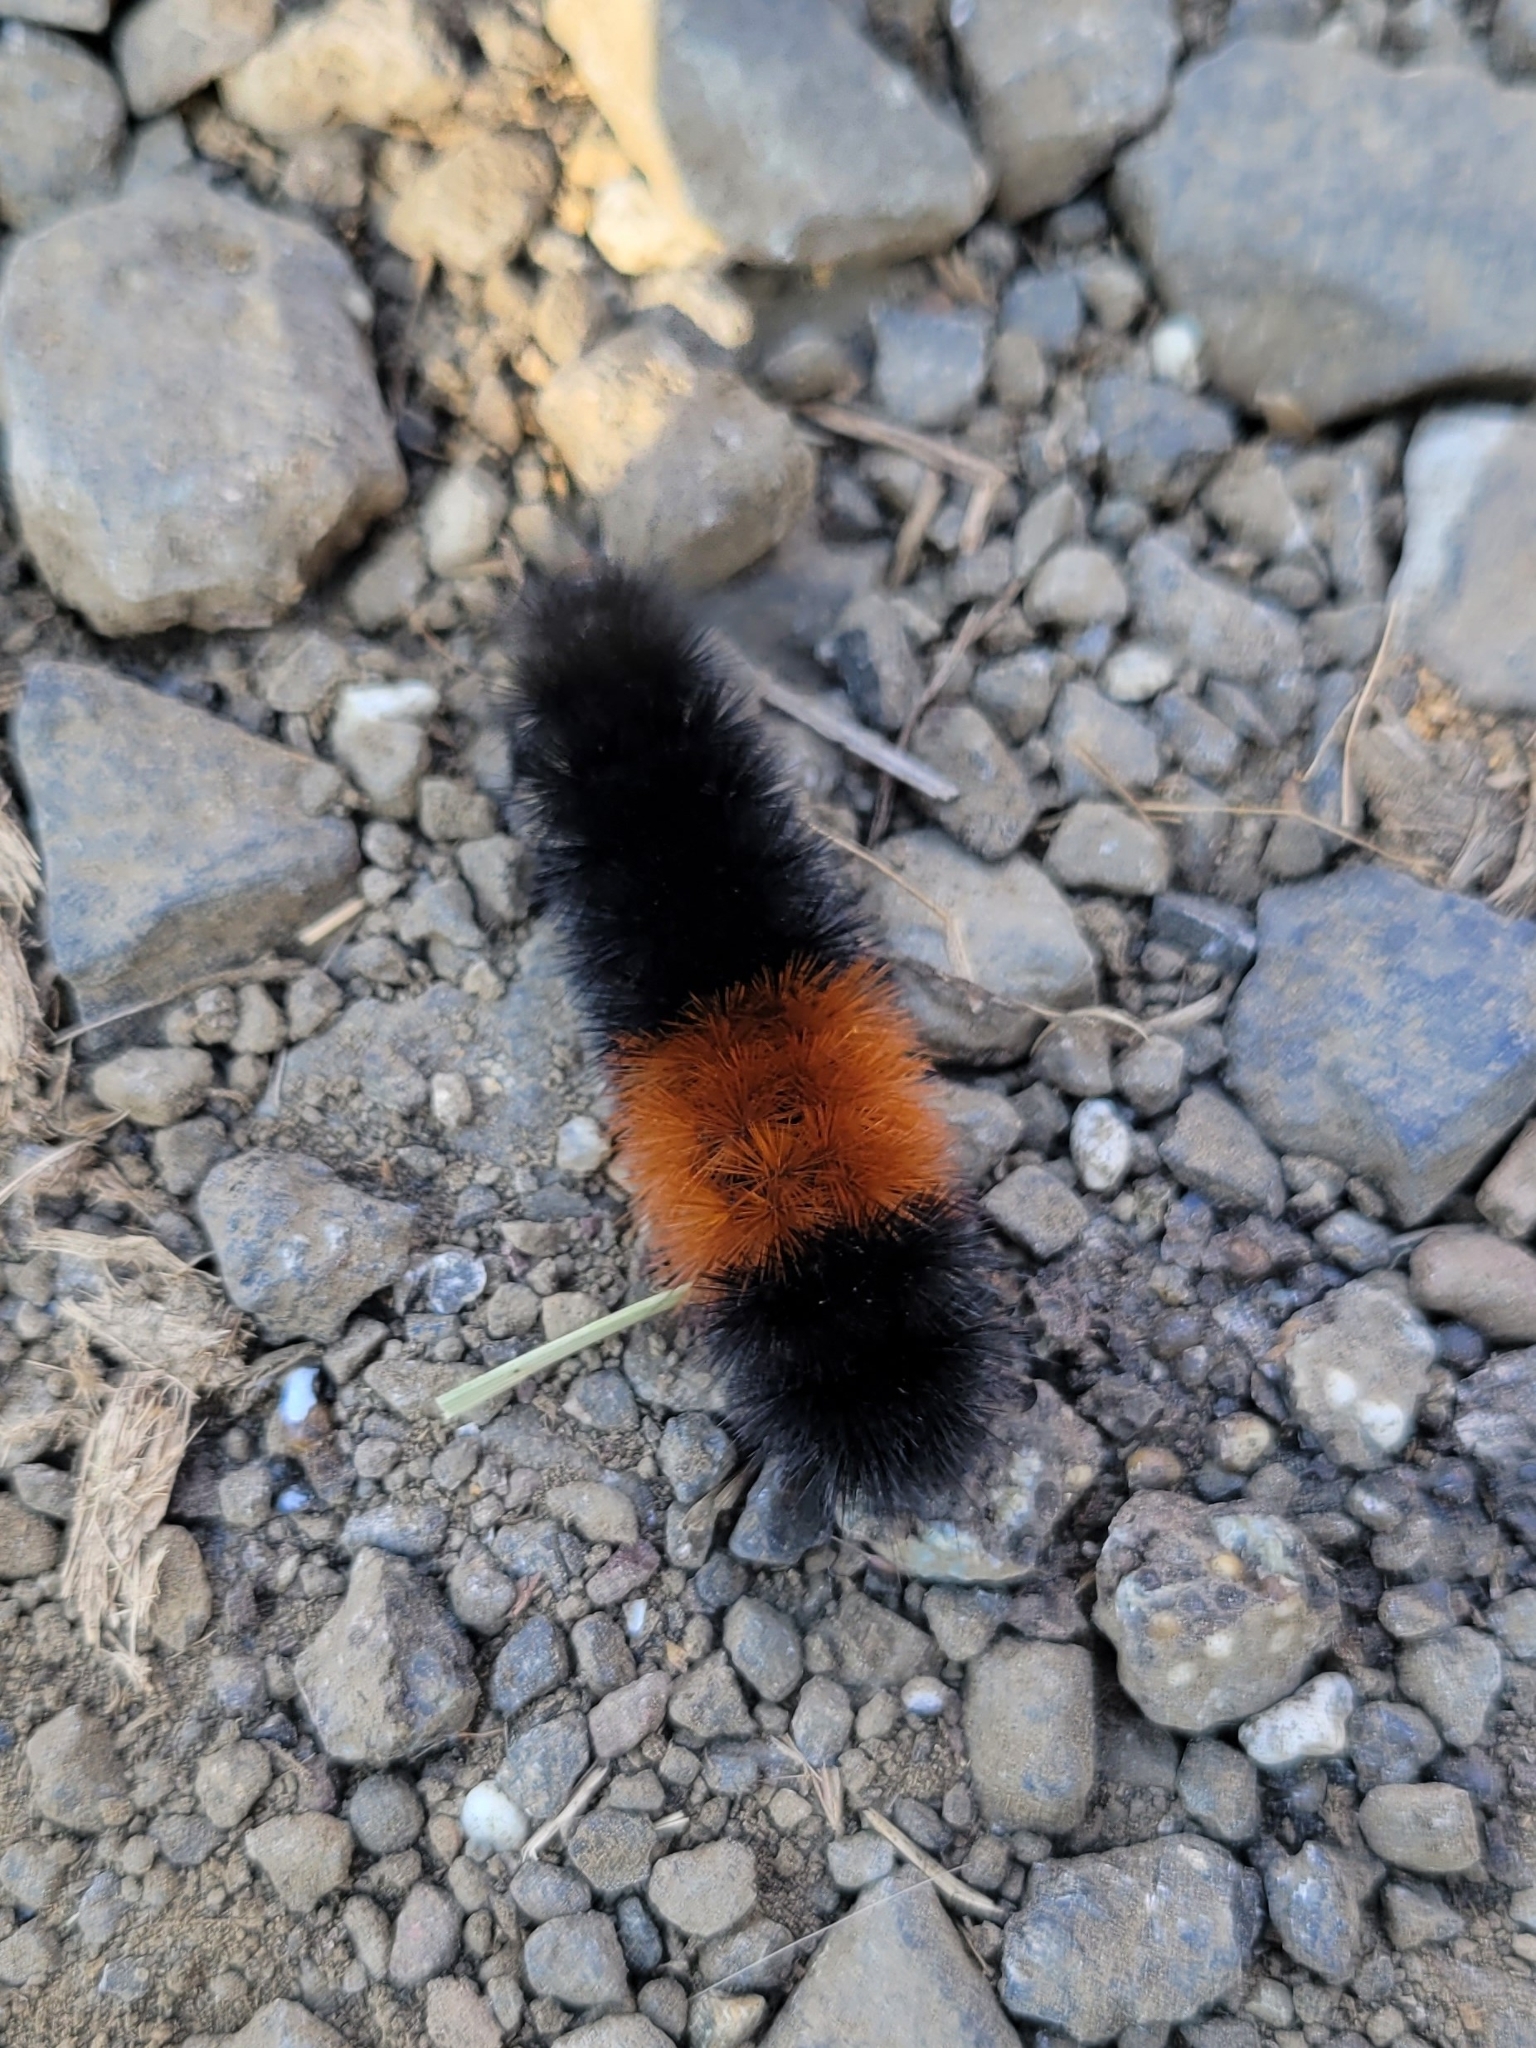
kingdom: Animalia
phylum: Arthropoda
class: Insecta
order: Lepidoptera
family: Erebidae
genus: Pyrrharctia
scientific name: Pyrrharctia isabella
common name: Isabella tiger moth
